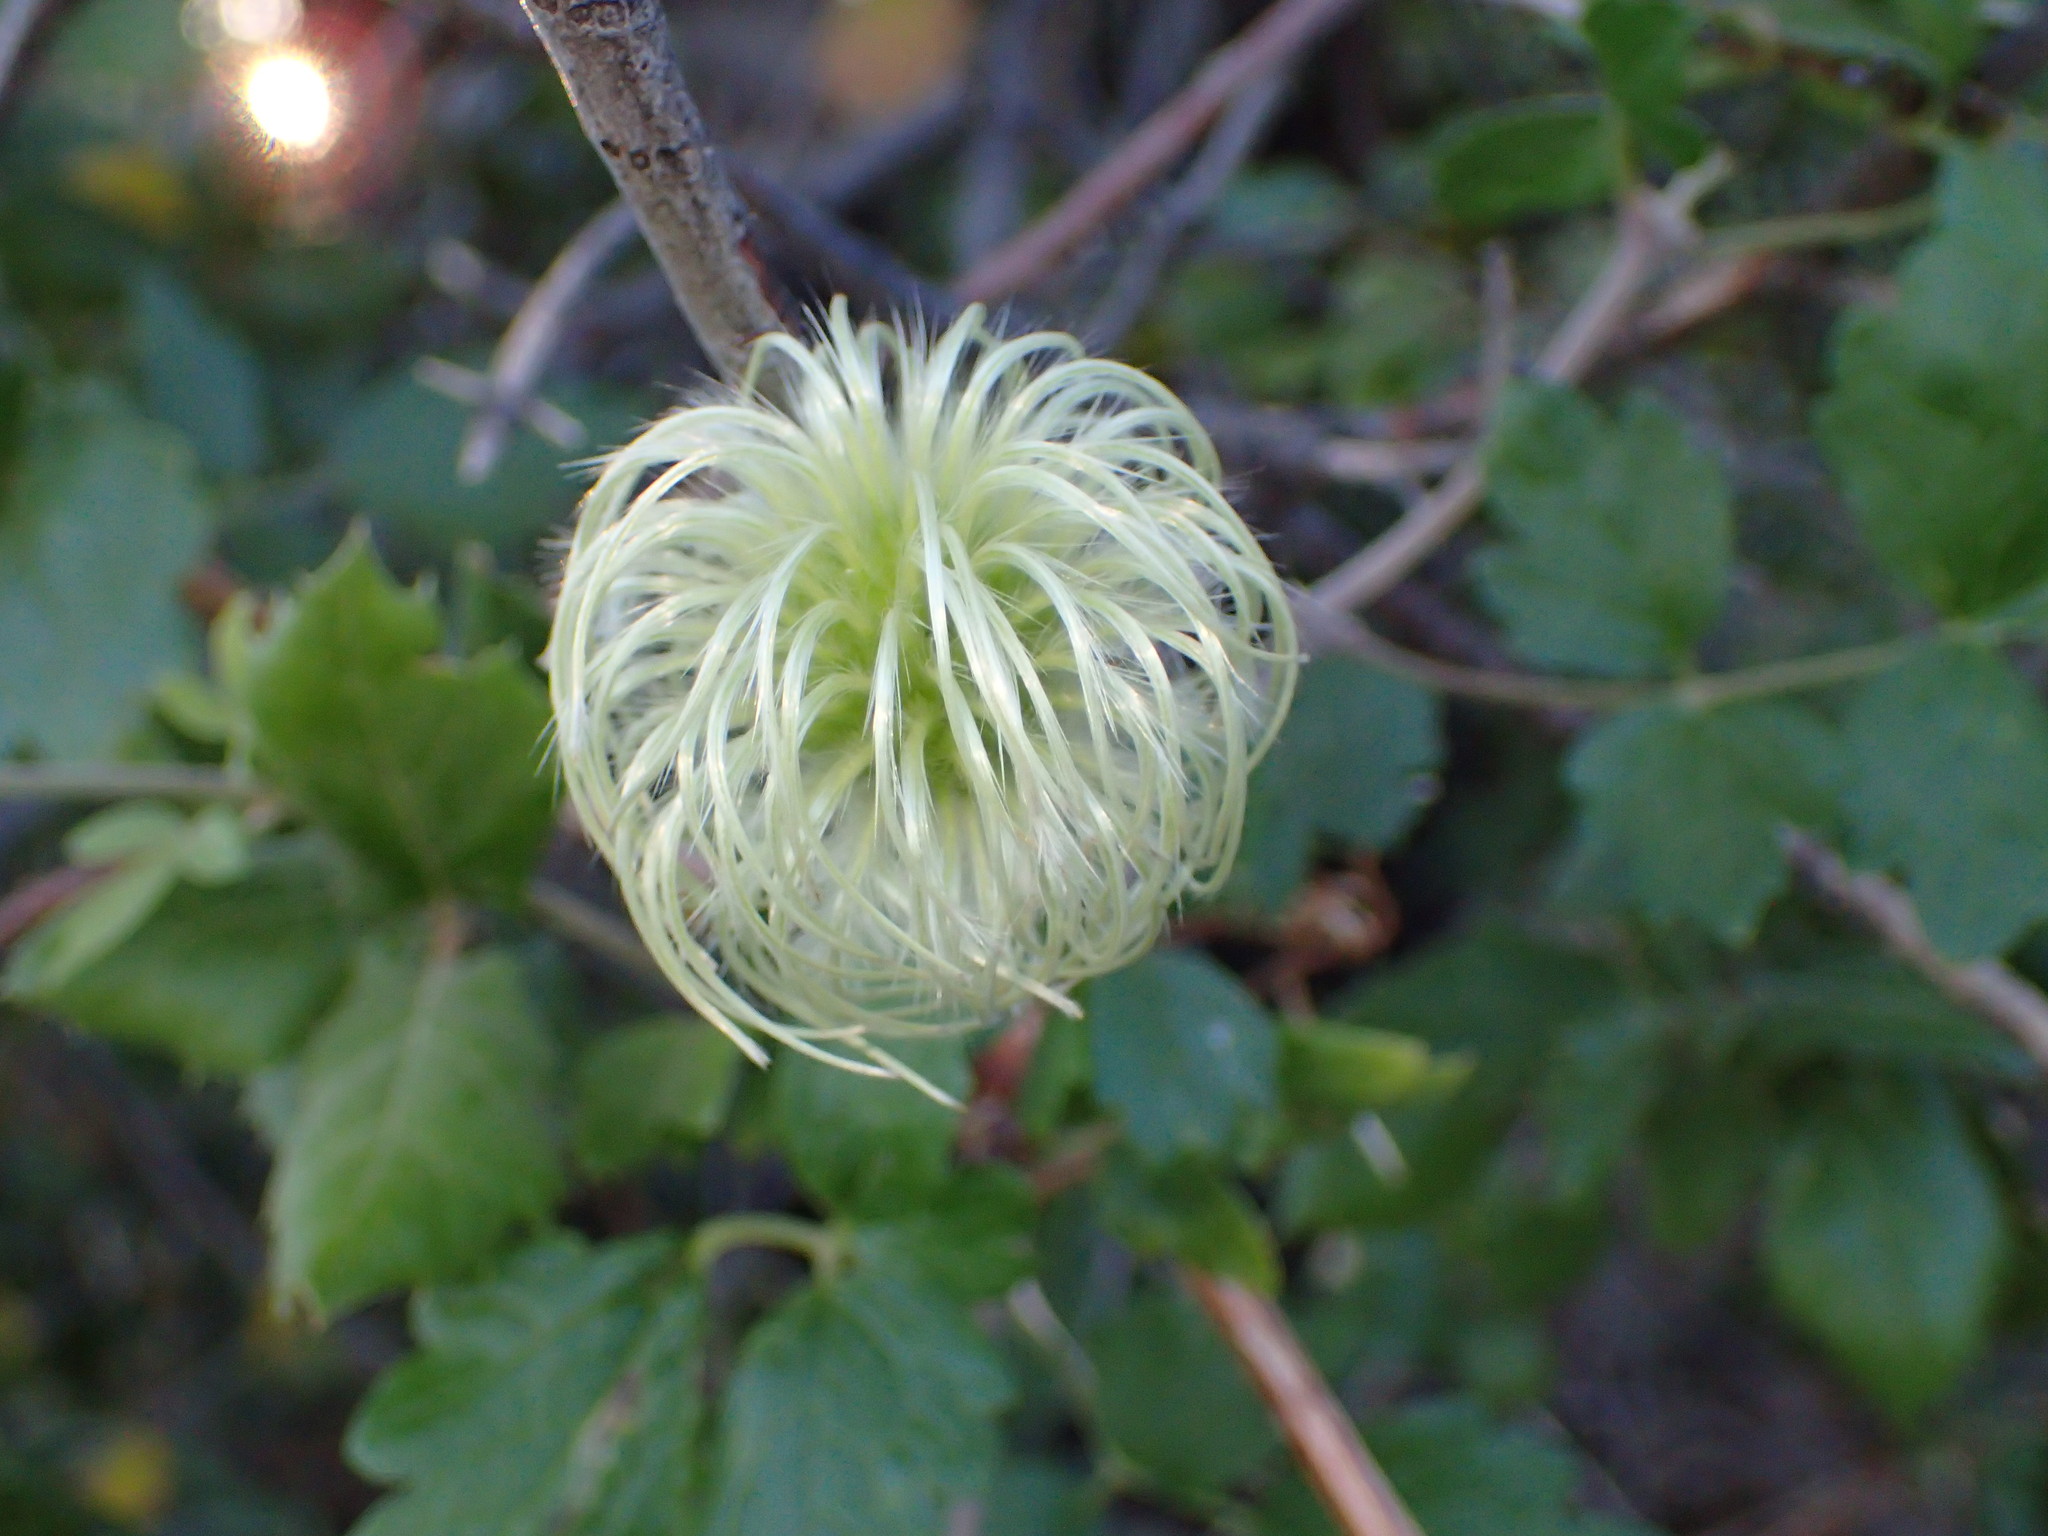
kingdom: Plantae
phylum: Tracheophyta
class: Magnoliopsida
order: Ranunculales
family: Ranunculaceae
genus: Clematis
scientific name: Clematis lasiantha
